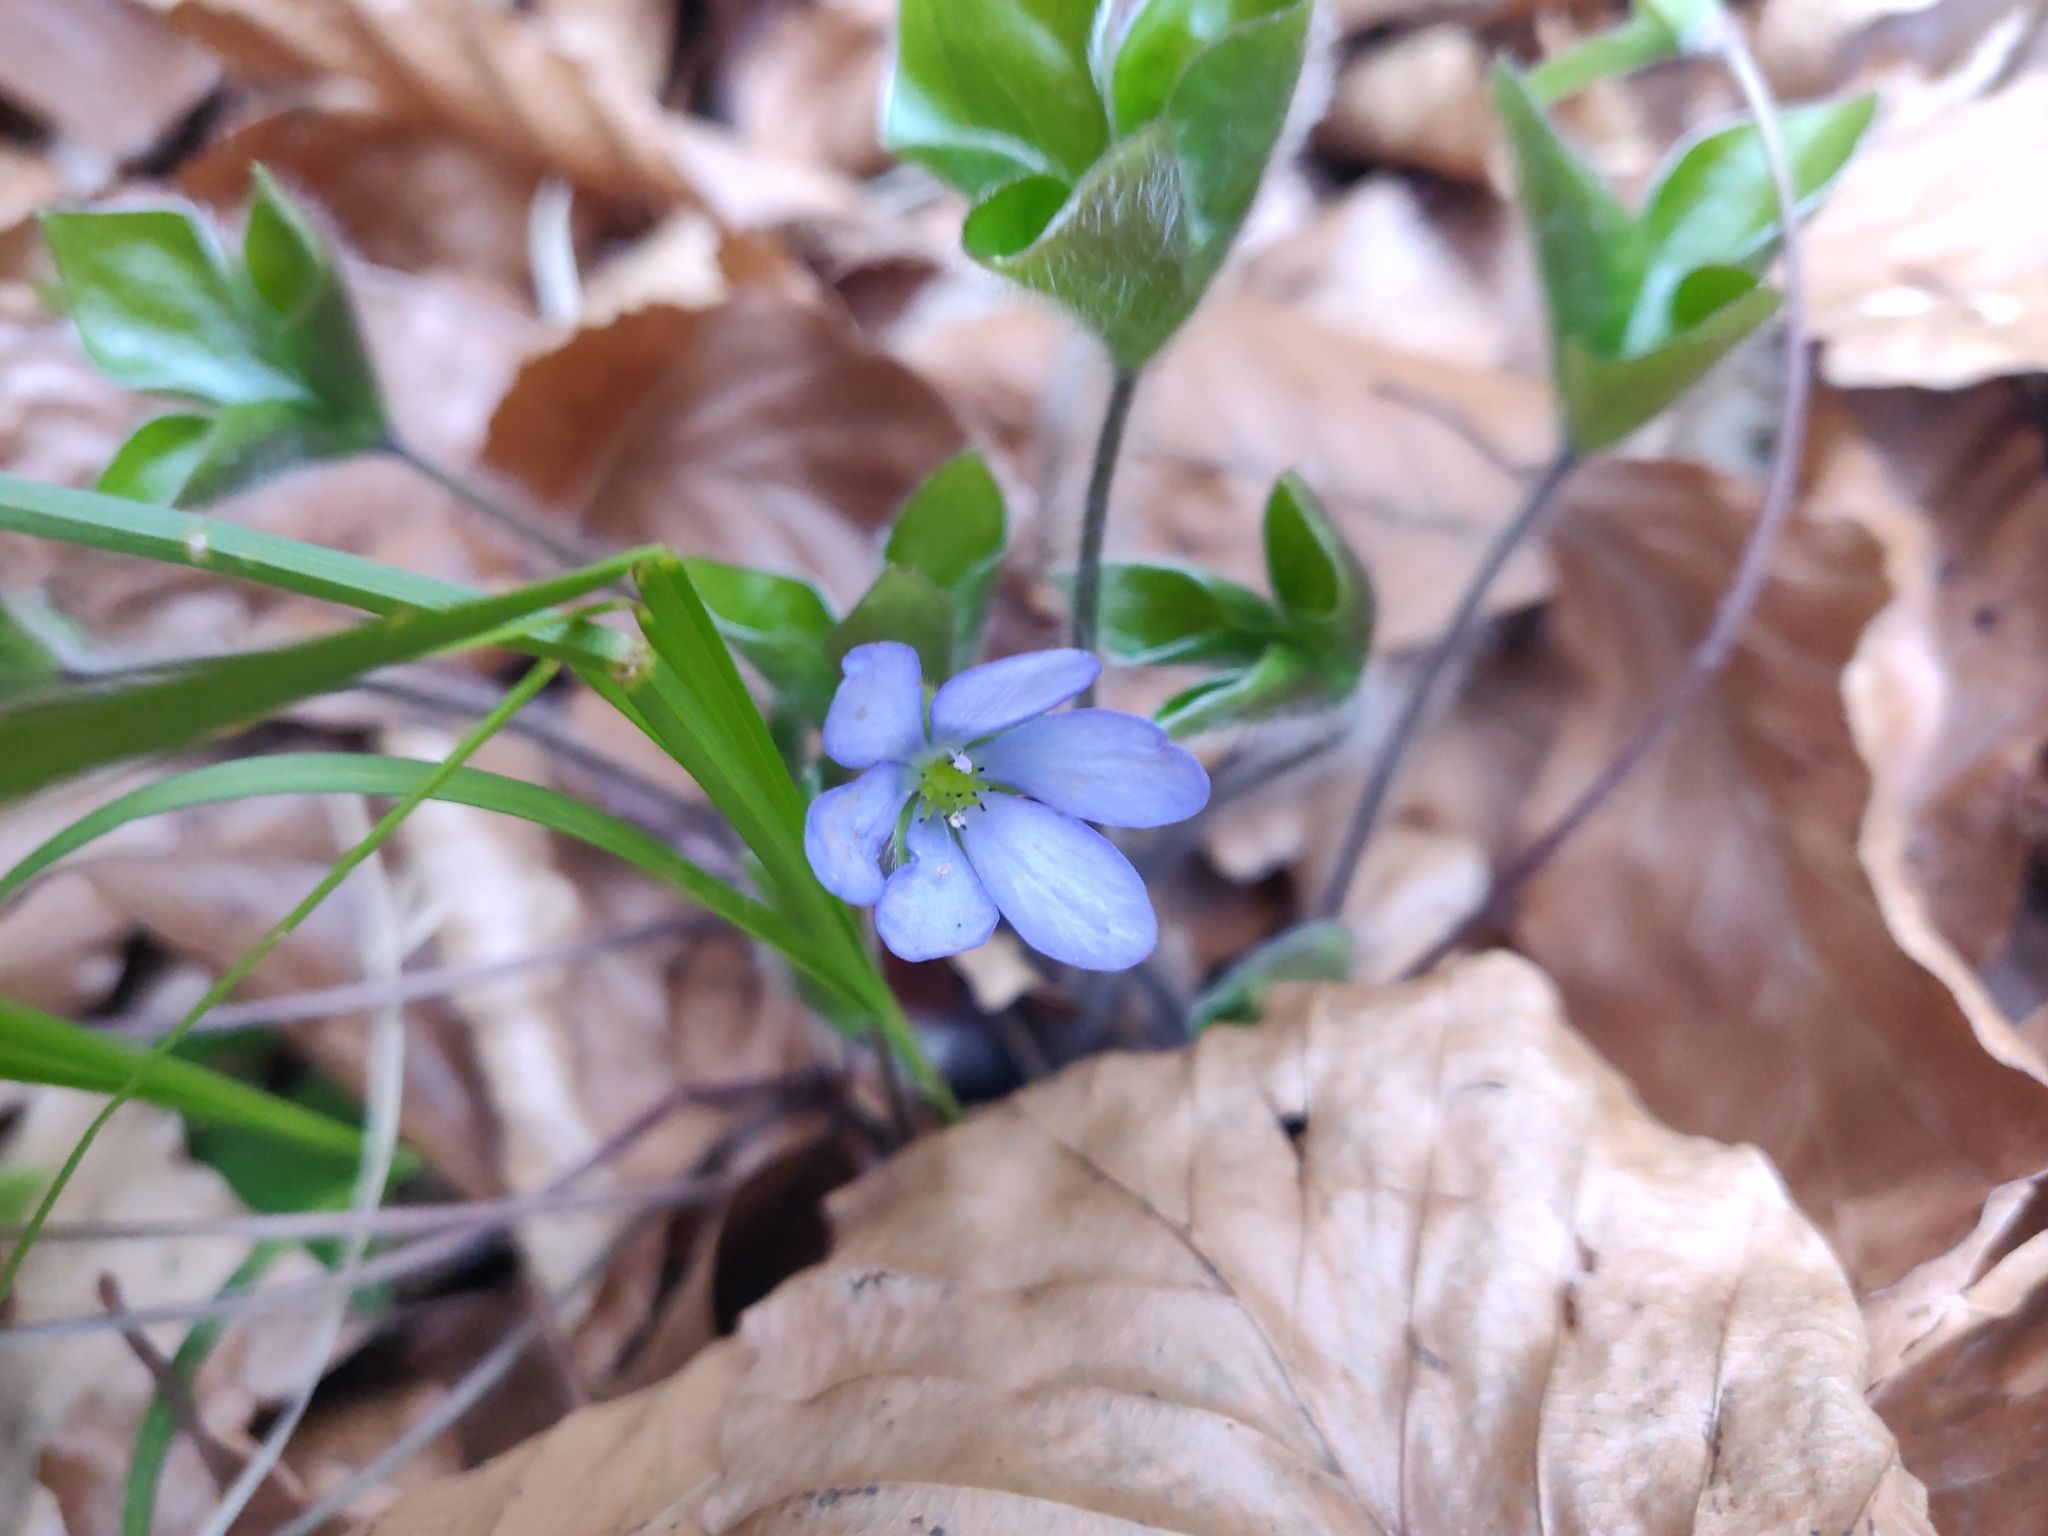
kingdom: Plantae
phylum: Tracheophyta
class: Magnoliopsida
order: Ranunculales
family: Ranunculaceae
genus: Hepatica
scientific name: Hepatica nobilis
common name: Liverleaf
